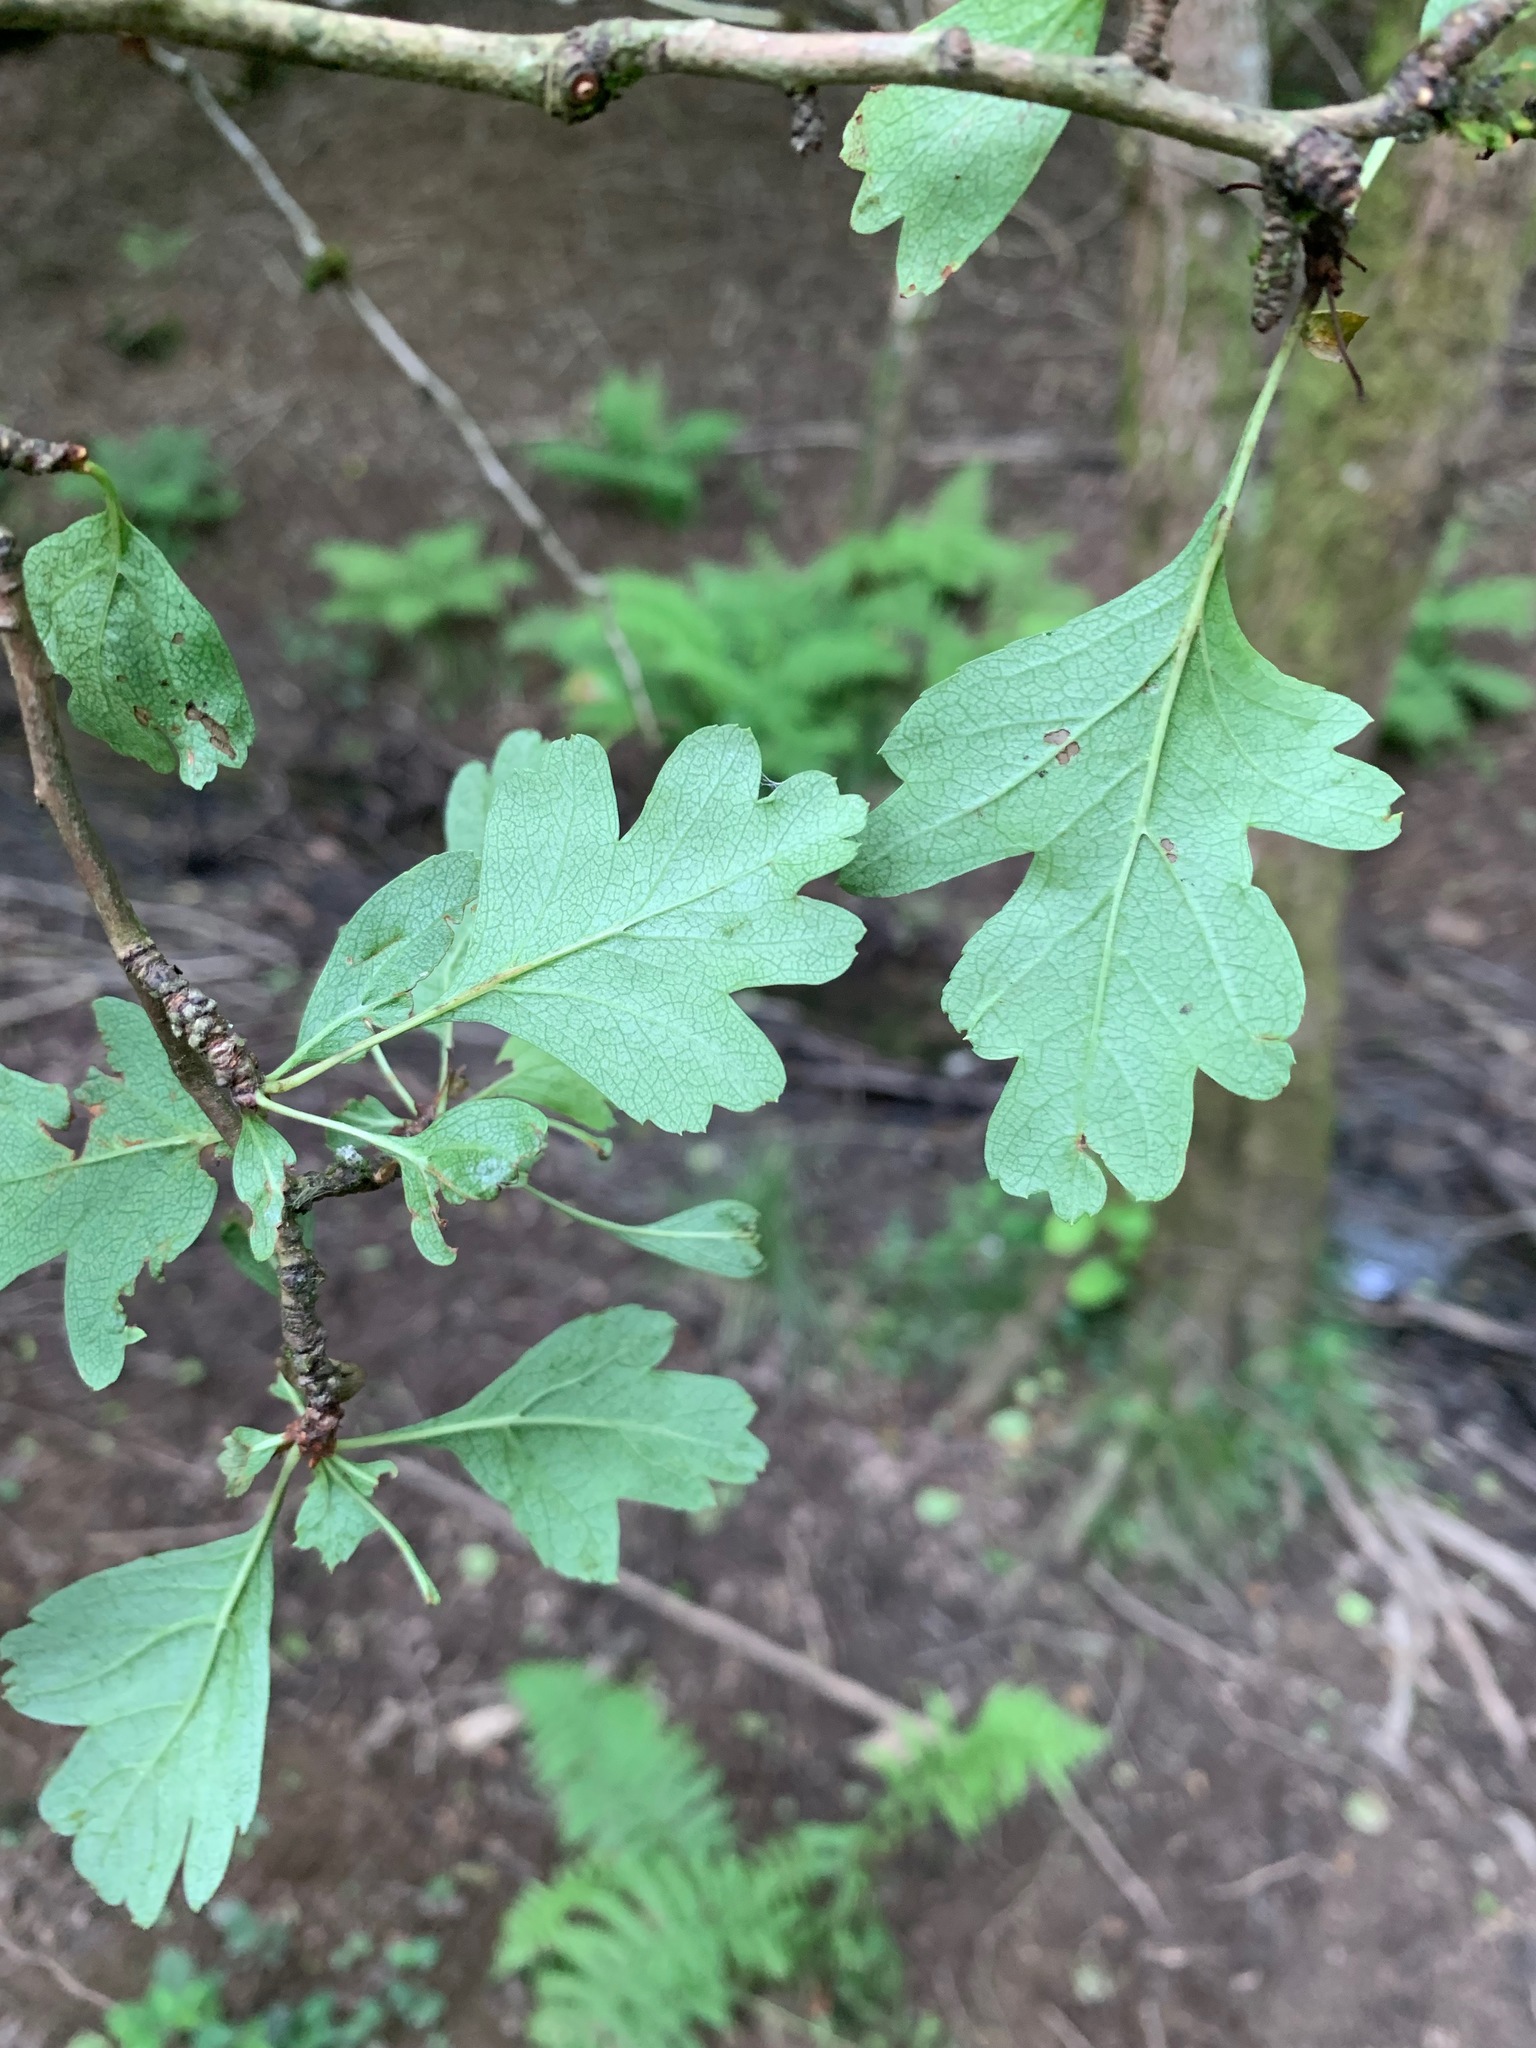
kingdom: Plantae
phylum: Tracheophyta
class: Magnoliopsida
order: Rosales
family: Rosaceae
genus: Crataegus
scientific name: Crataegus monogyna
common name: Hawthorn
